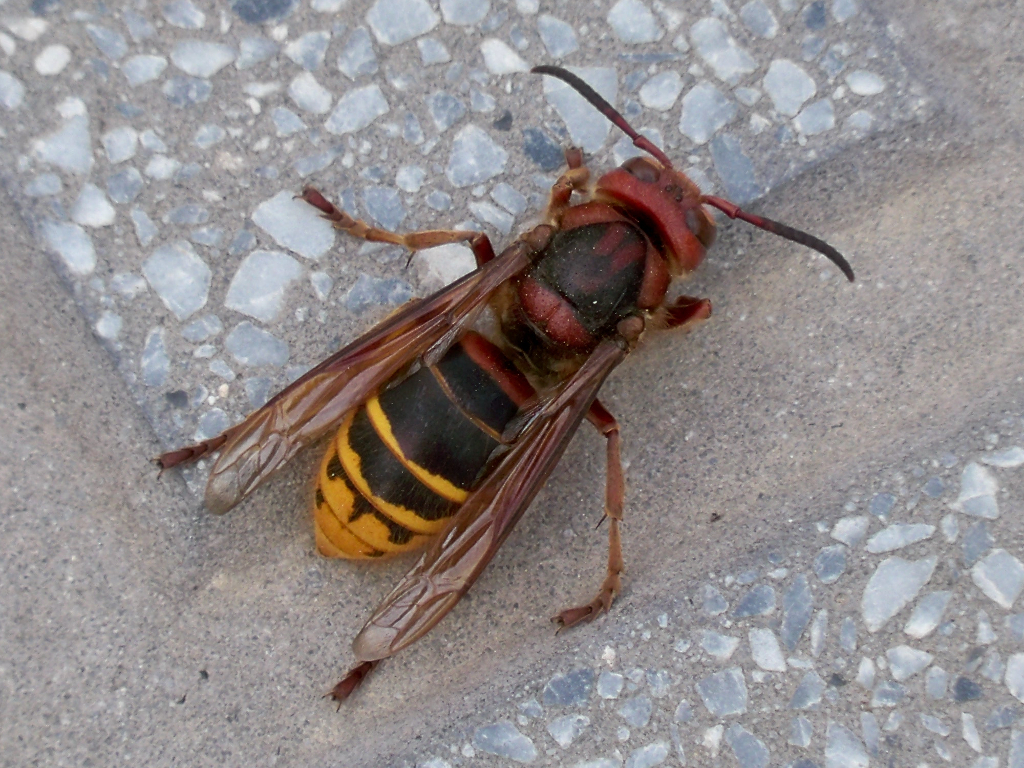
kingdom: Animalia
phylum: Arthropoda
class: Insecta
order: Hymenoptera
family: Vespidae
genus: Vespa
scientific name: Vespa crabro
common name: Hornet
